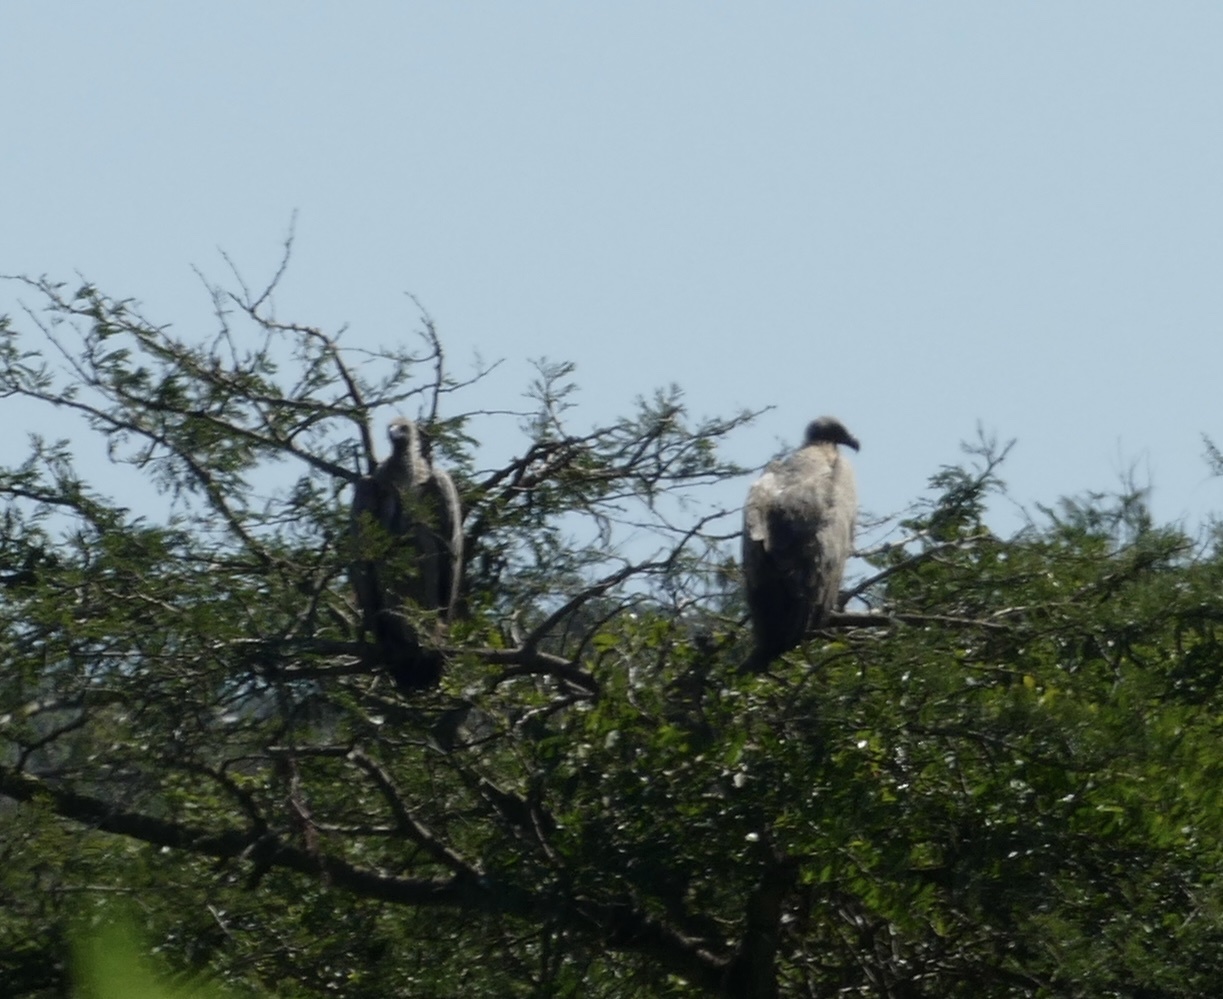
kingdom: Animalia
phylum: Chordata
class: Aves
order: Accipitriformes
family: Accipitridae
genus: Gyps
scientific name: Gyps africanus
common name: White-backed vulture
